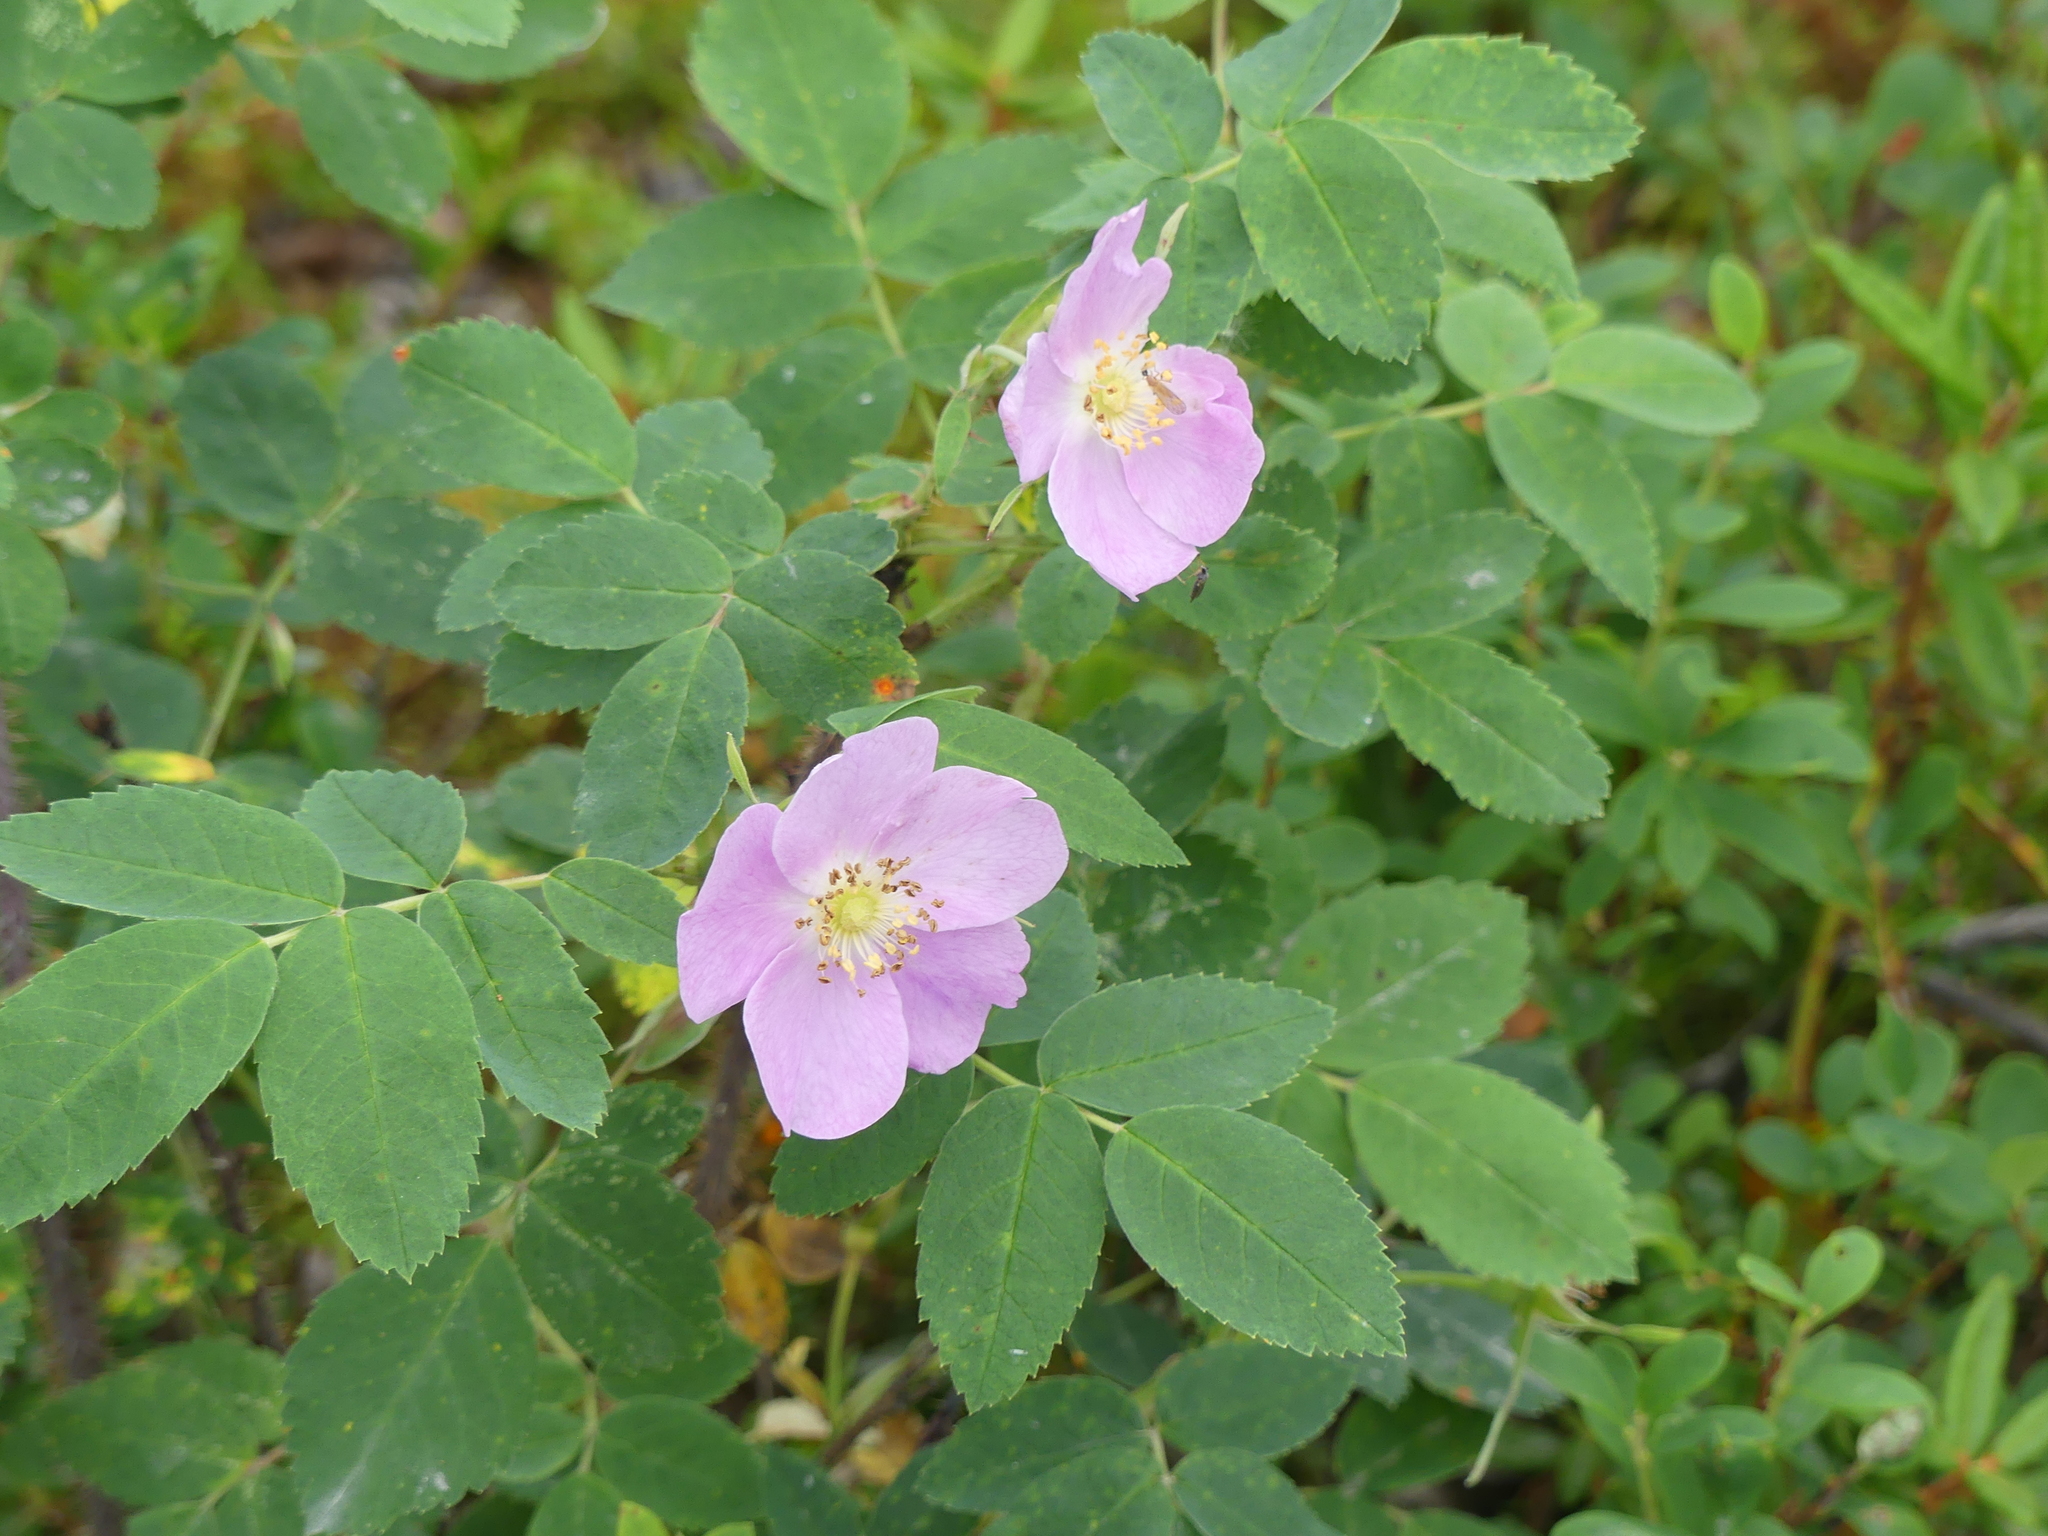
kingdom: Plantae
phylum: Tracheophyta
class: Magnoliopsida
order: Rosales
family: Rosaceae
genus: Rosa
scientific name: Rosa acicularis
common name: Prickly rose
